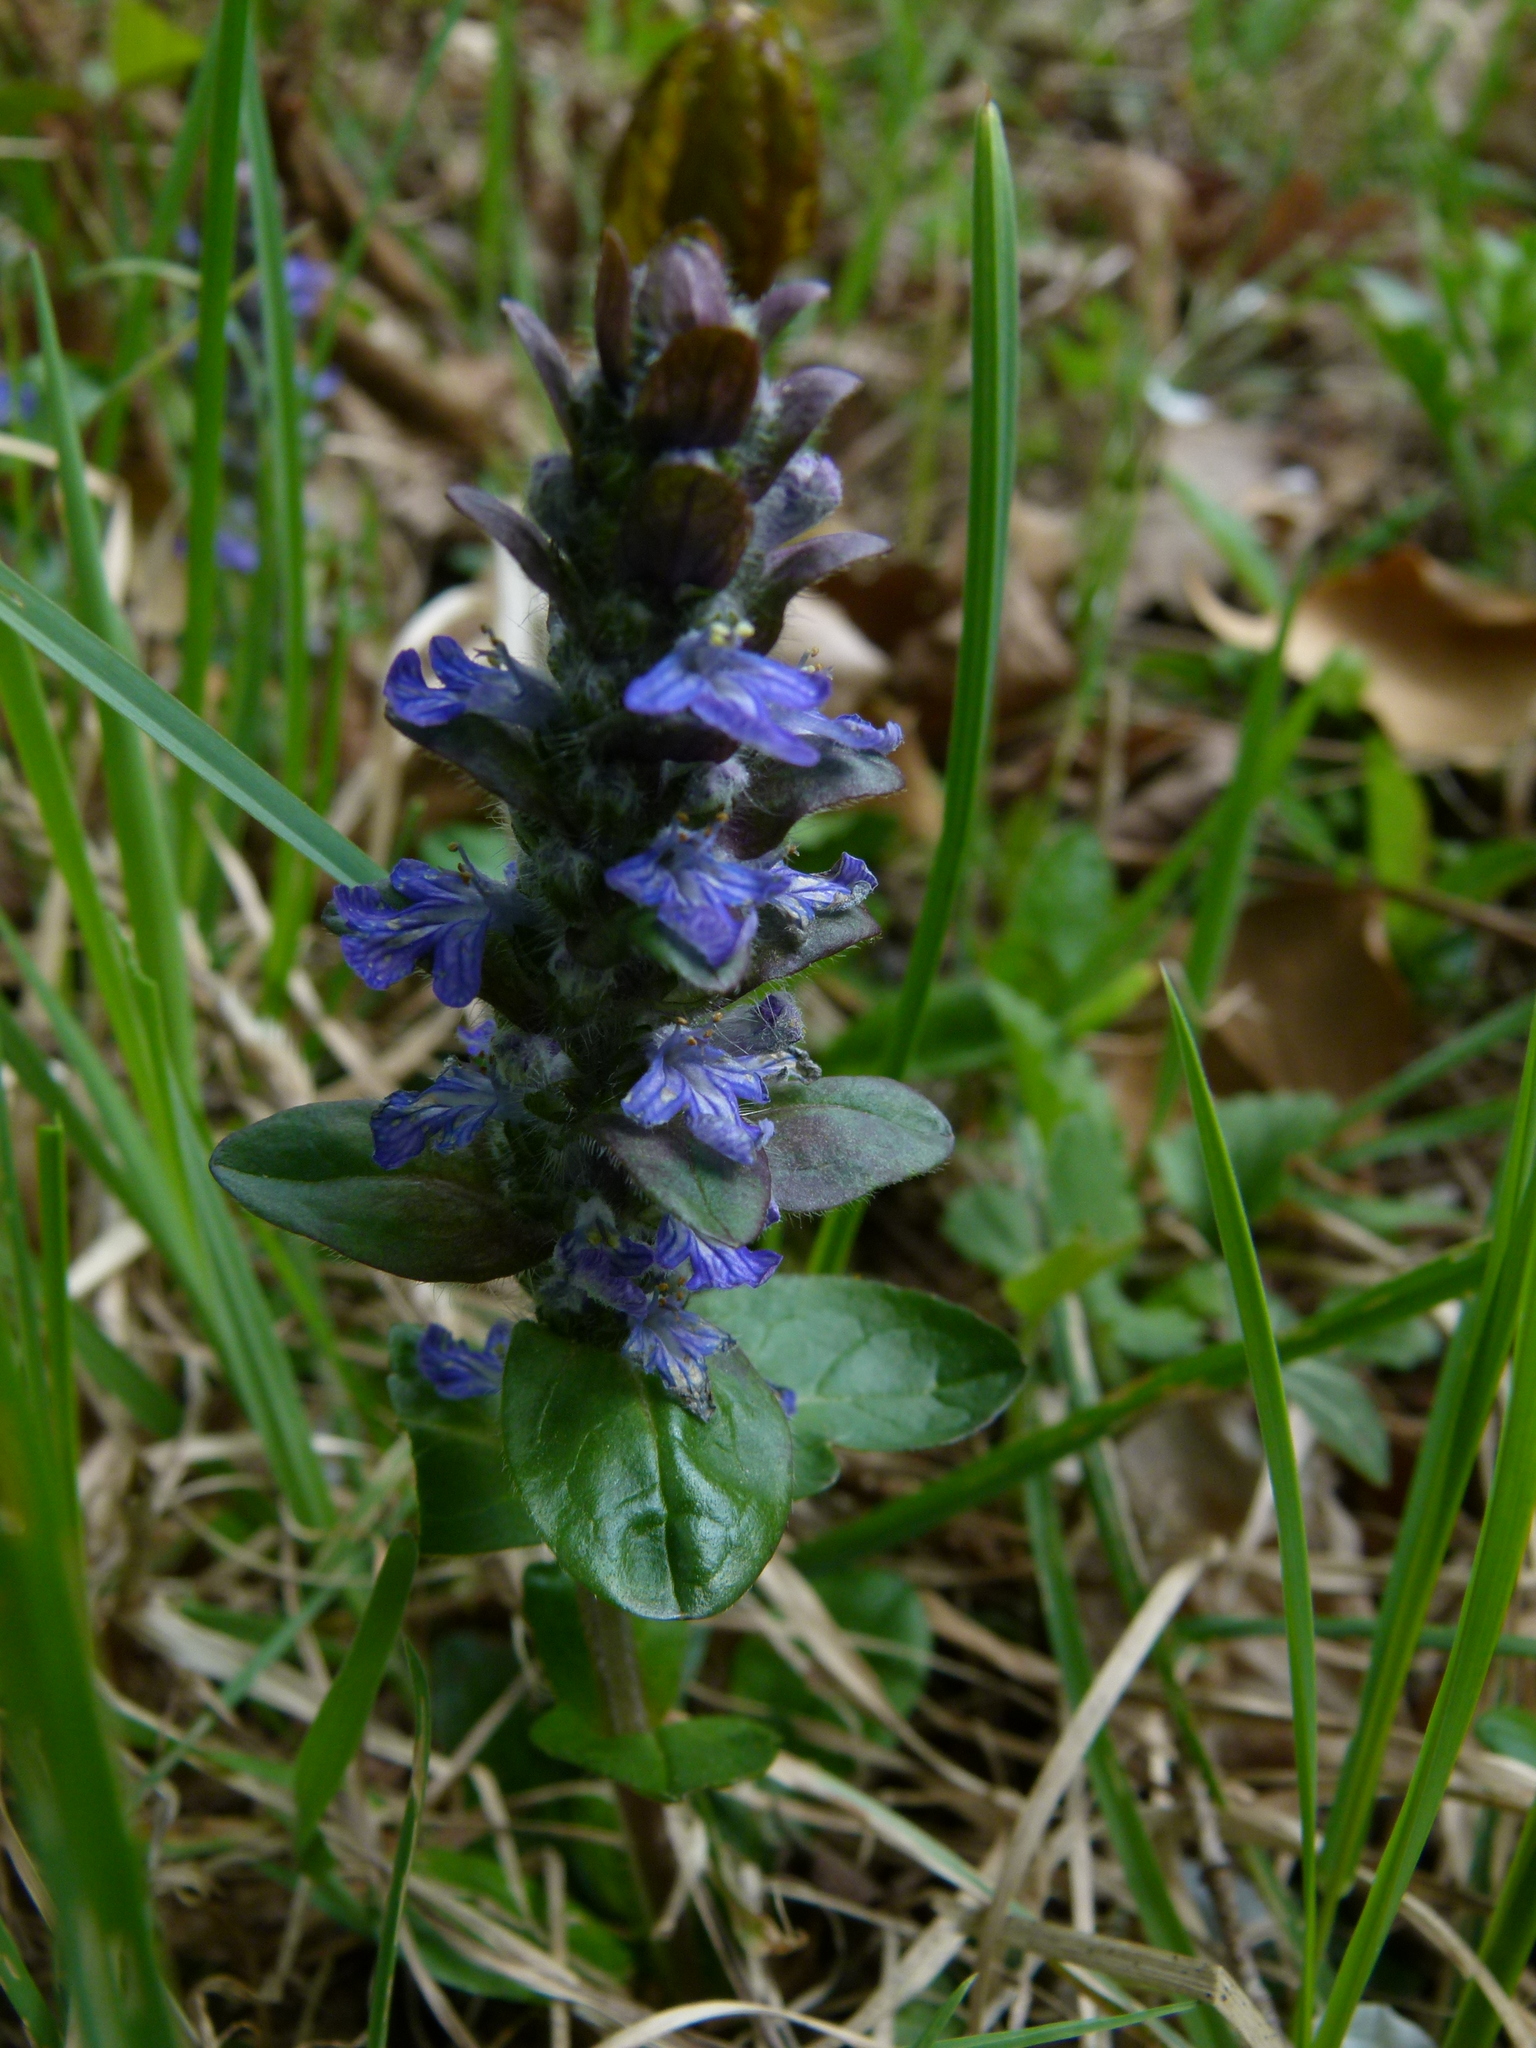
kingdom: Plantae
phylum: Tracheophyta
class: Magnoliopsida
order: Lamiales
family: Lamiaceae
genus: Ajuga
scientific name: Ajuga reptans
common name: Bugle
